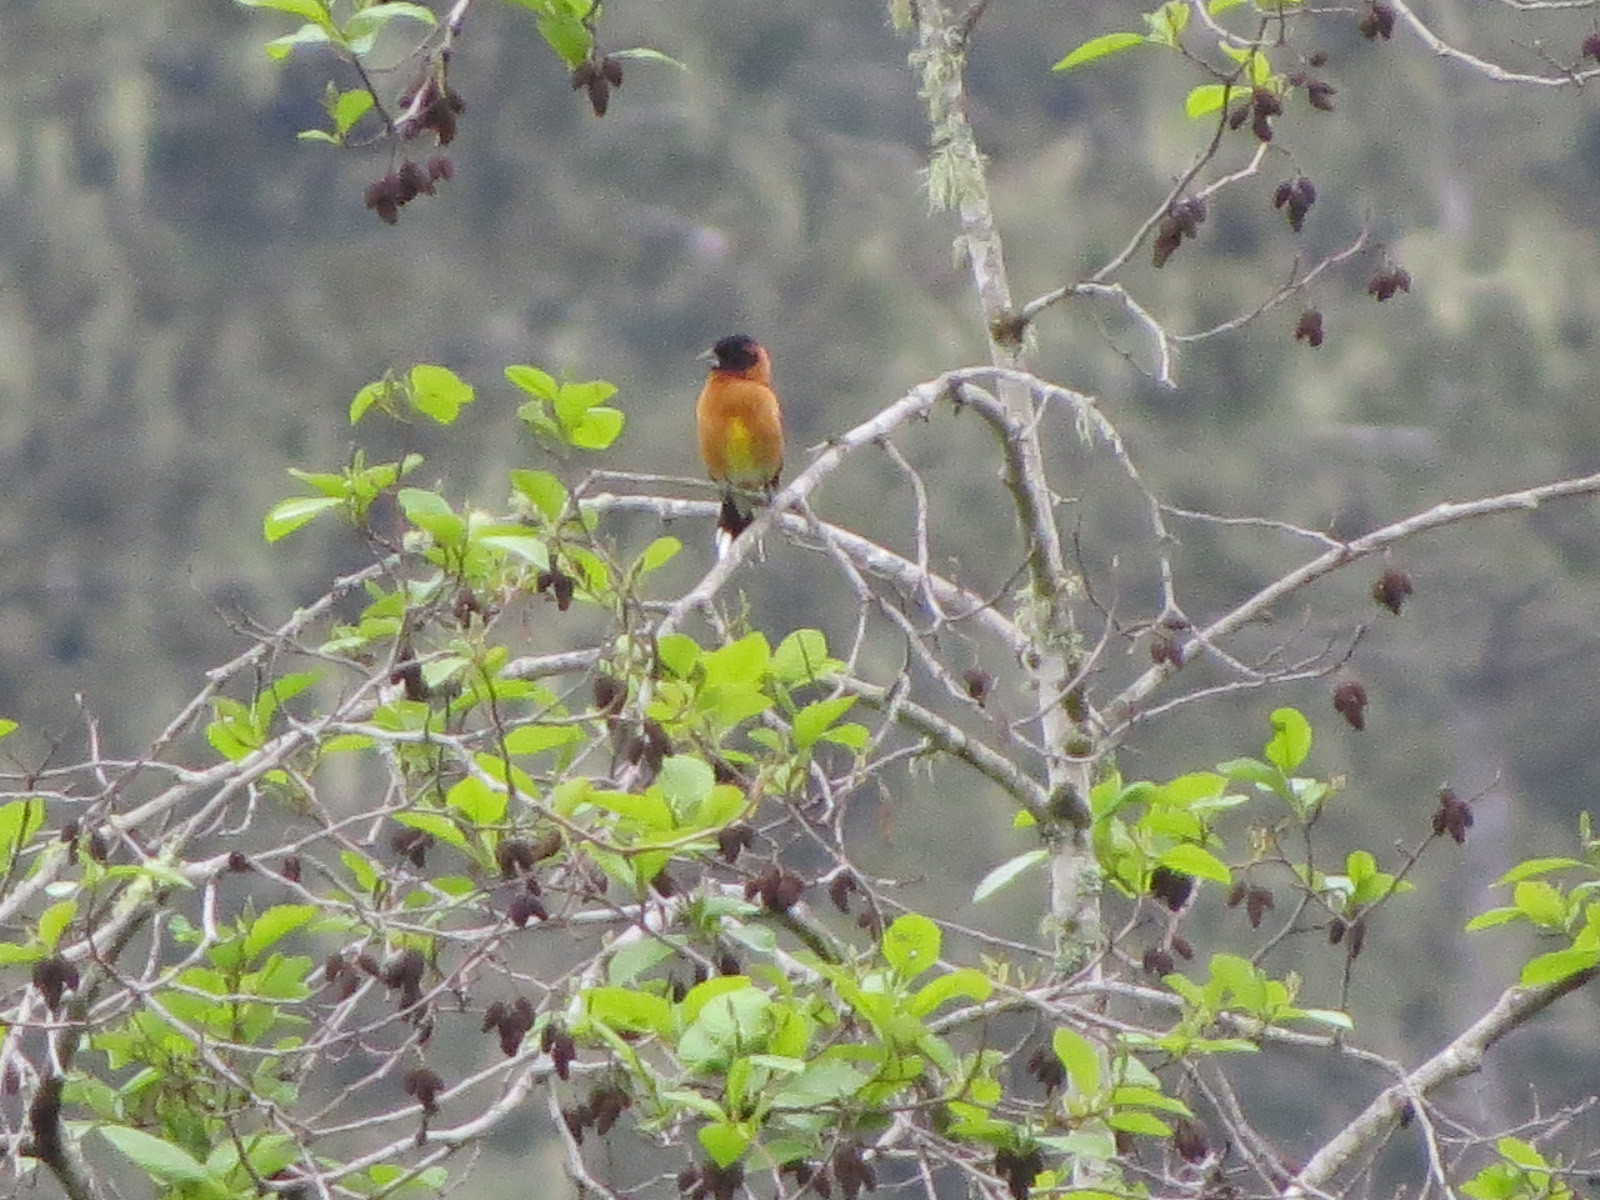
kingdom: Animalia
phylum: Chordata
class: Aves
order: Passeriformes
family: Cardinalidae
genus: Pheucticus
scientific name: Pheucticus melanocephalus
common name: Black-headed grosbeak
